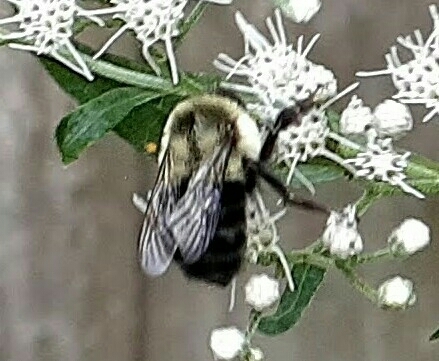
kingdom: Animalia
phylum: Arthropoda
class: Insecta
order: Hymenoptera
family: Apidae
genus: Bombus
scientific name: Bombus impatiens
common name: Common eastern bumble bee
